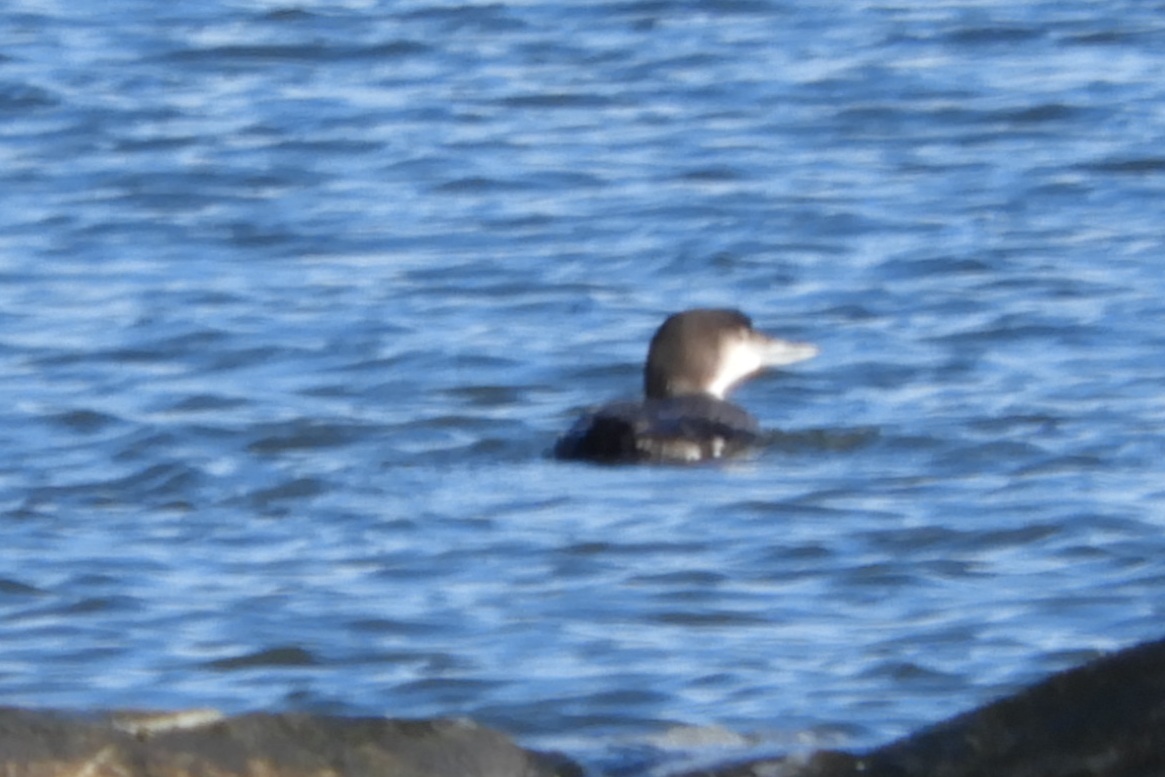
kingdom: Animalia
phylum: Chordata
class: Aves
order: Gaviiformes
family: Gaviidae
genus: Gavia
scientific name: Gavia immer
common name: Common loon
